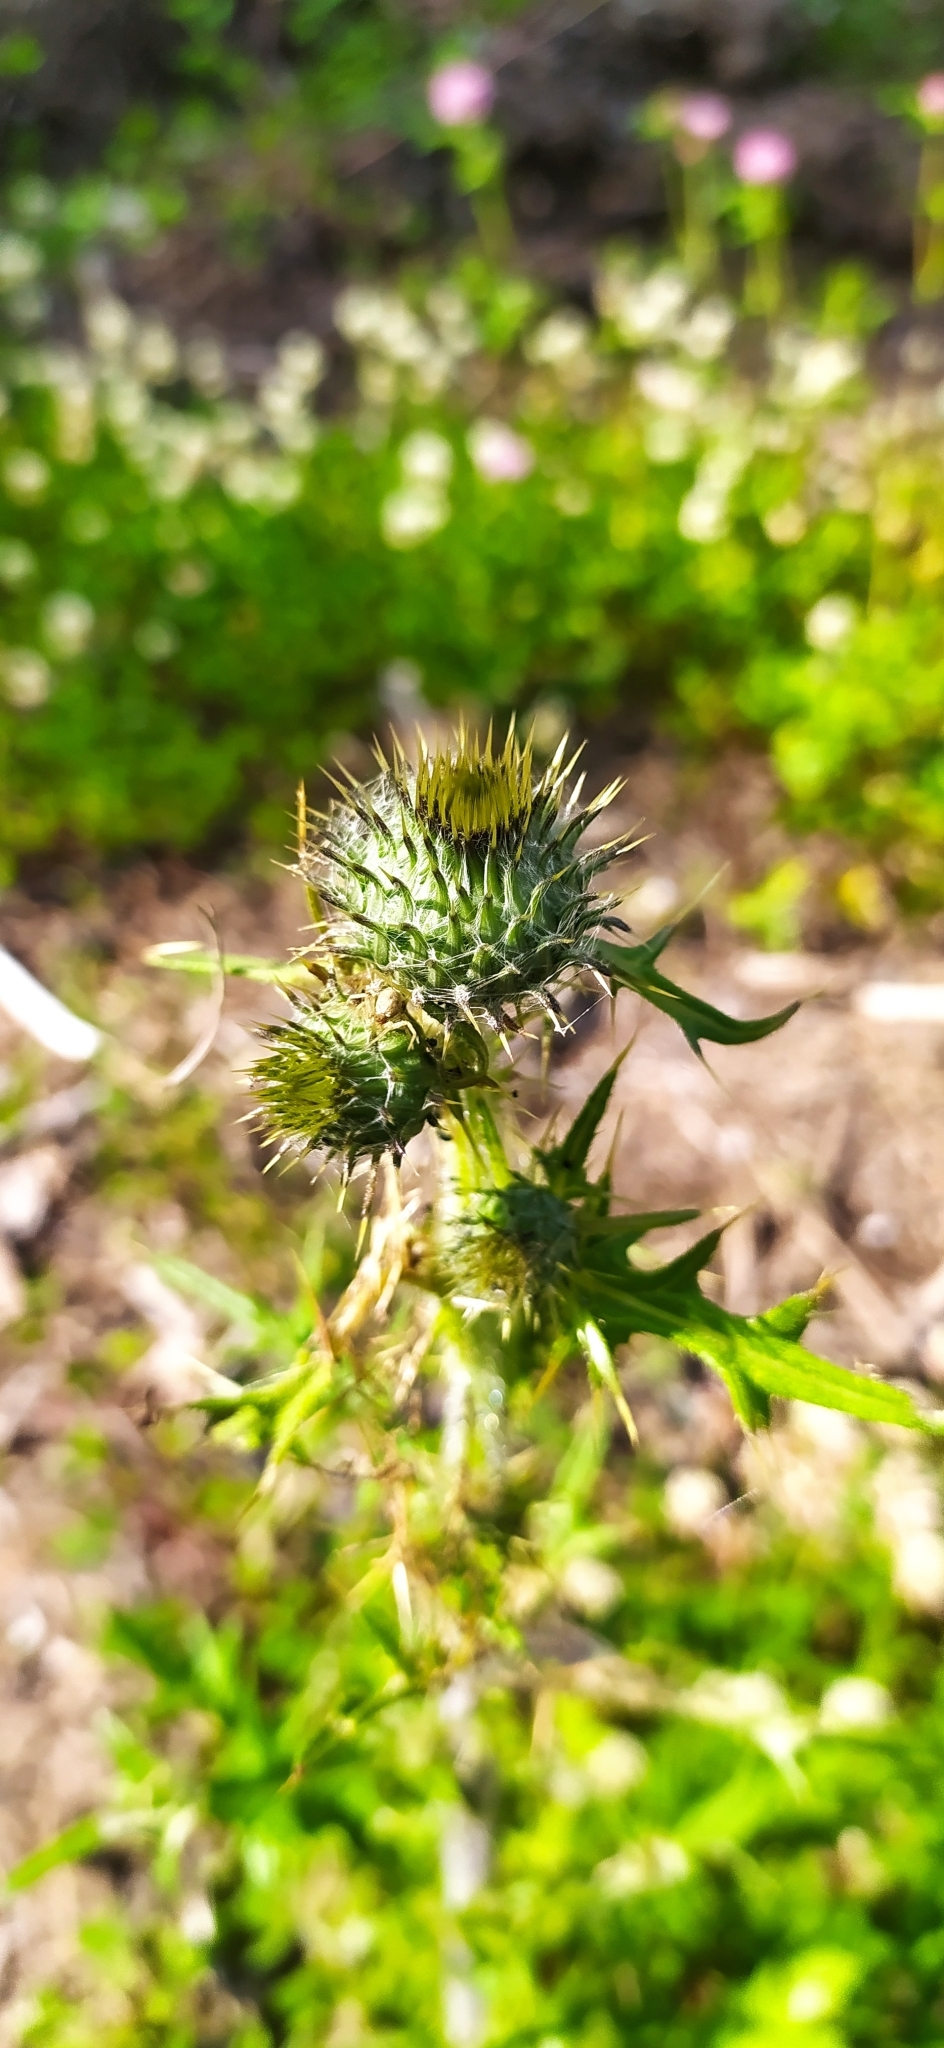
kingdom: Plantae
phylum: Tracheophyta
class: Magnoliopsida
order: Asterales
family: Asteraceae
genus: Cirsium
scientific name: Cirsium vulgare
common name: Bull thistle
